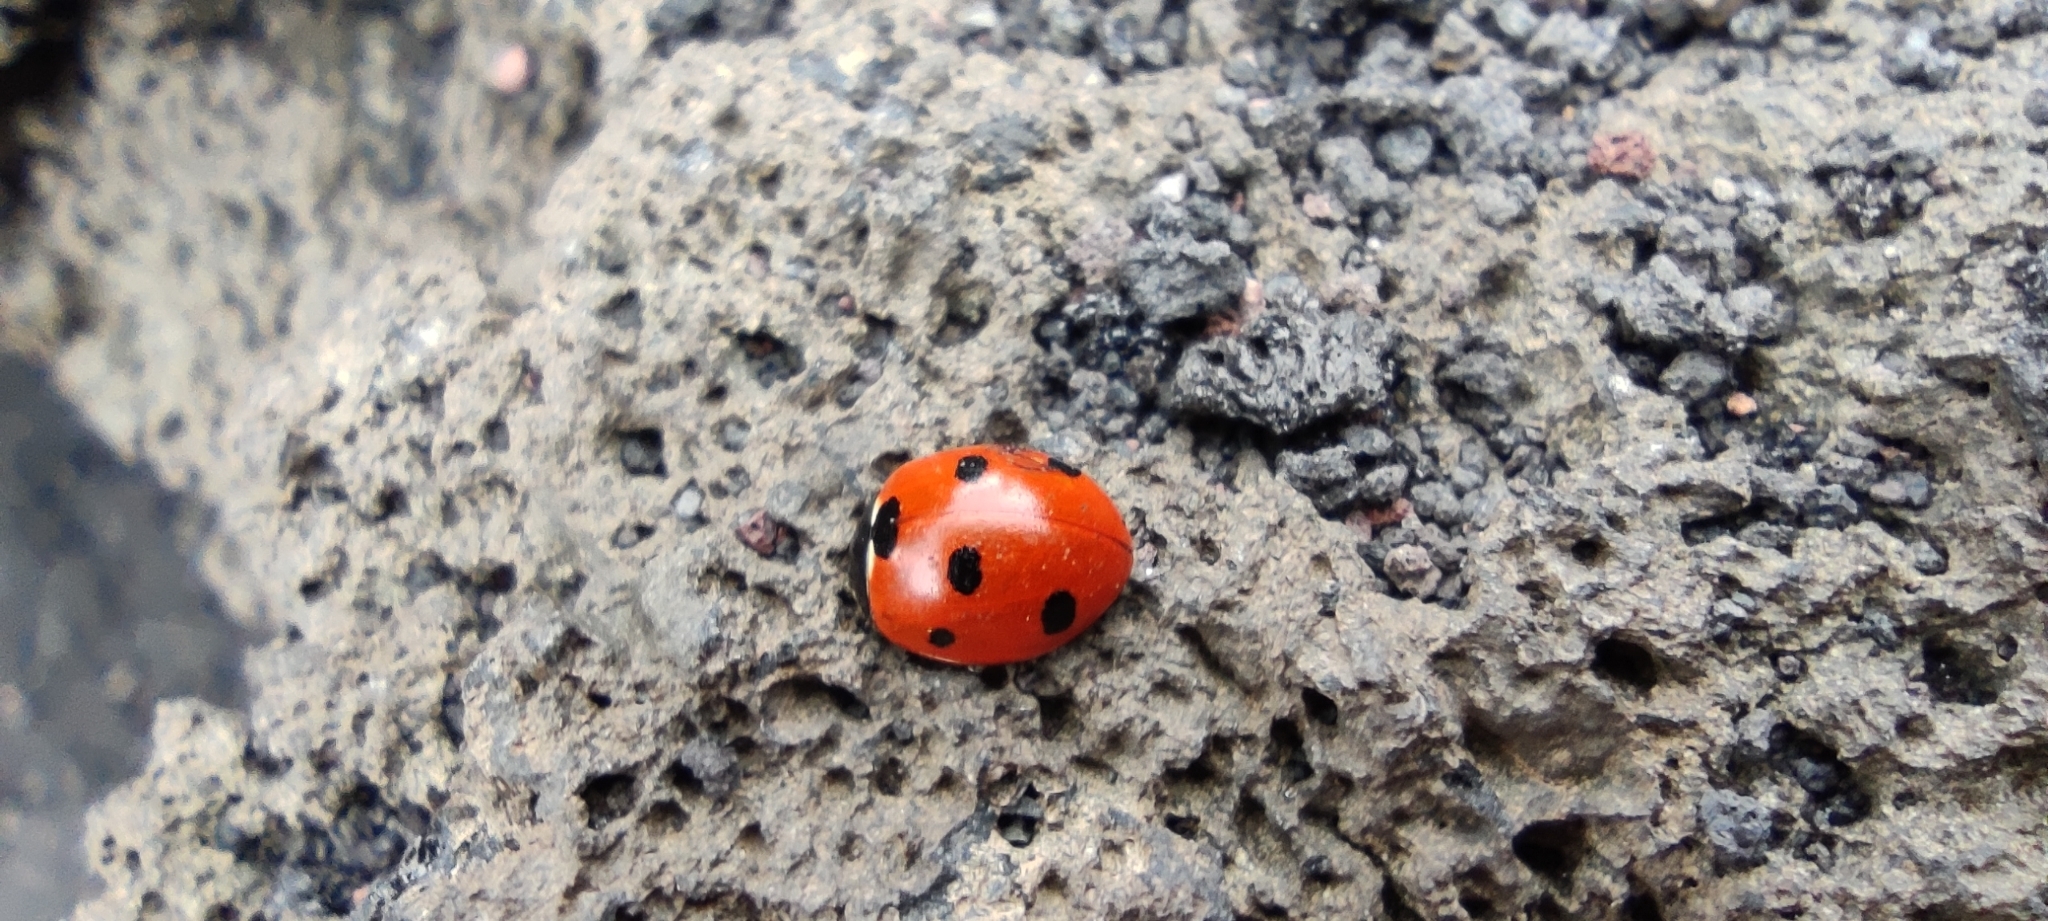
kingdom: Animalia
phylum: Arthropoda
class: Insecta
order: Coleoptera
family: Coccinellidae
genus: Coccinella
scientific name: Coccinella septempunctata
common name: Sevenspotted lady beetle
